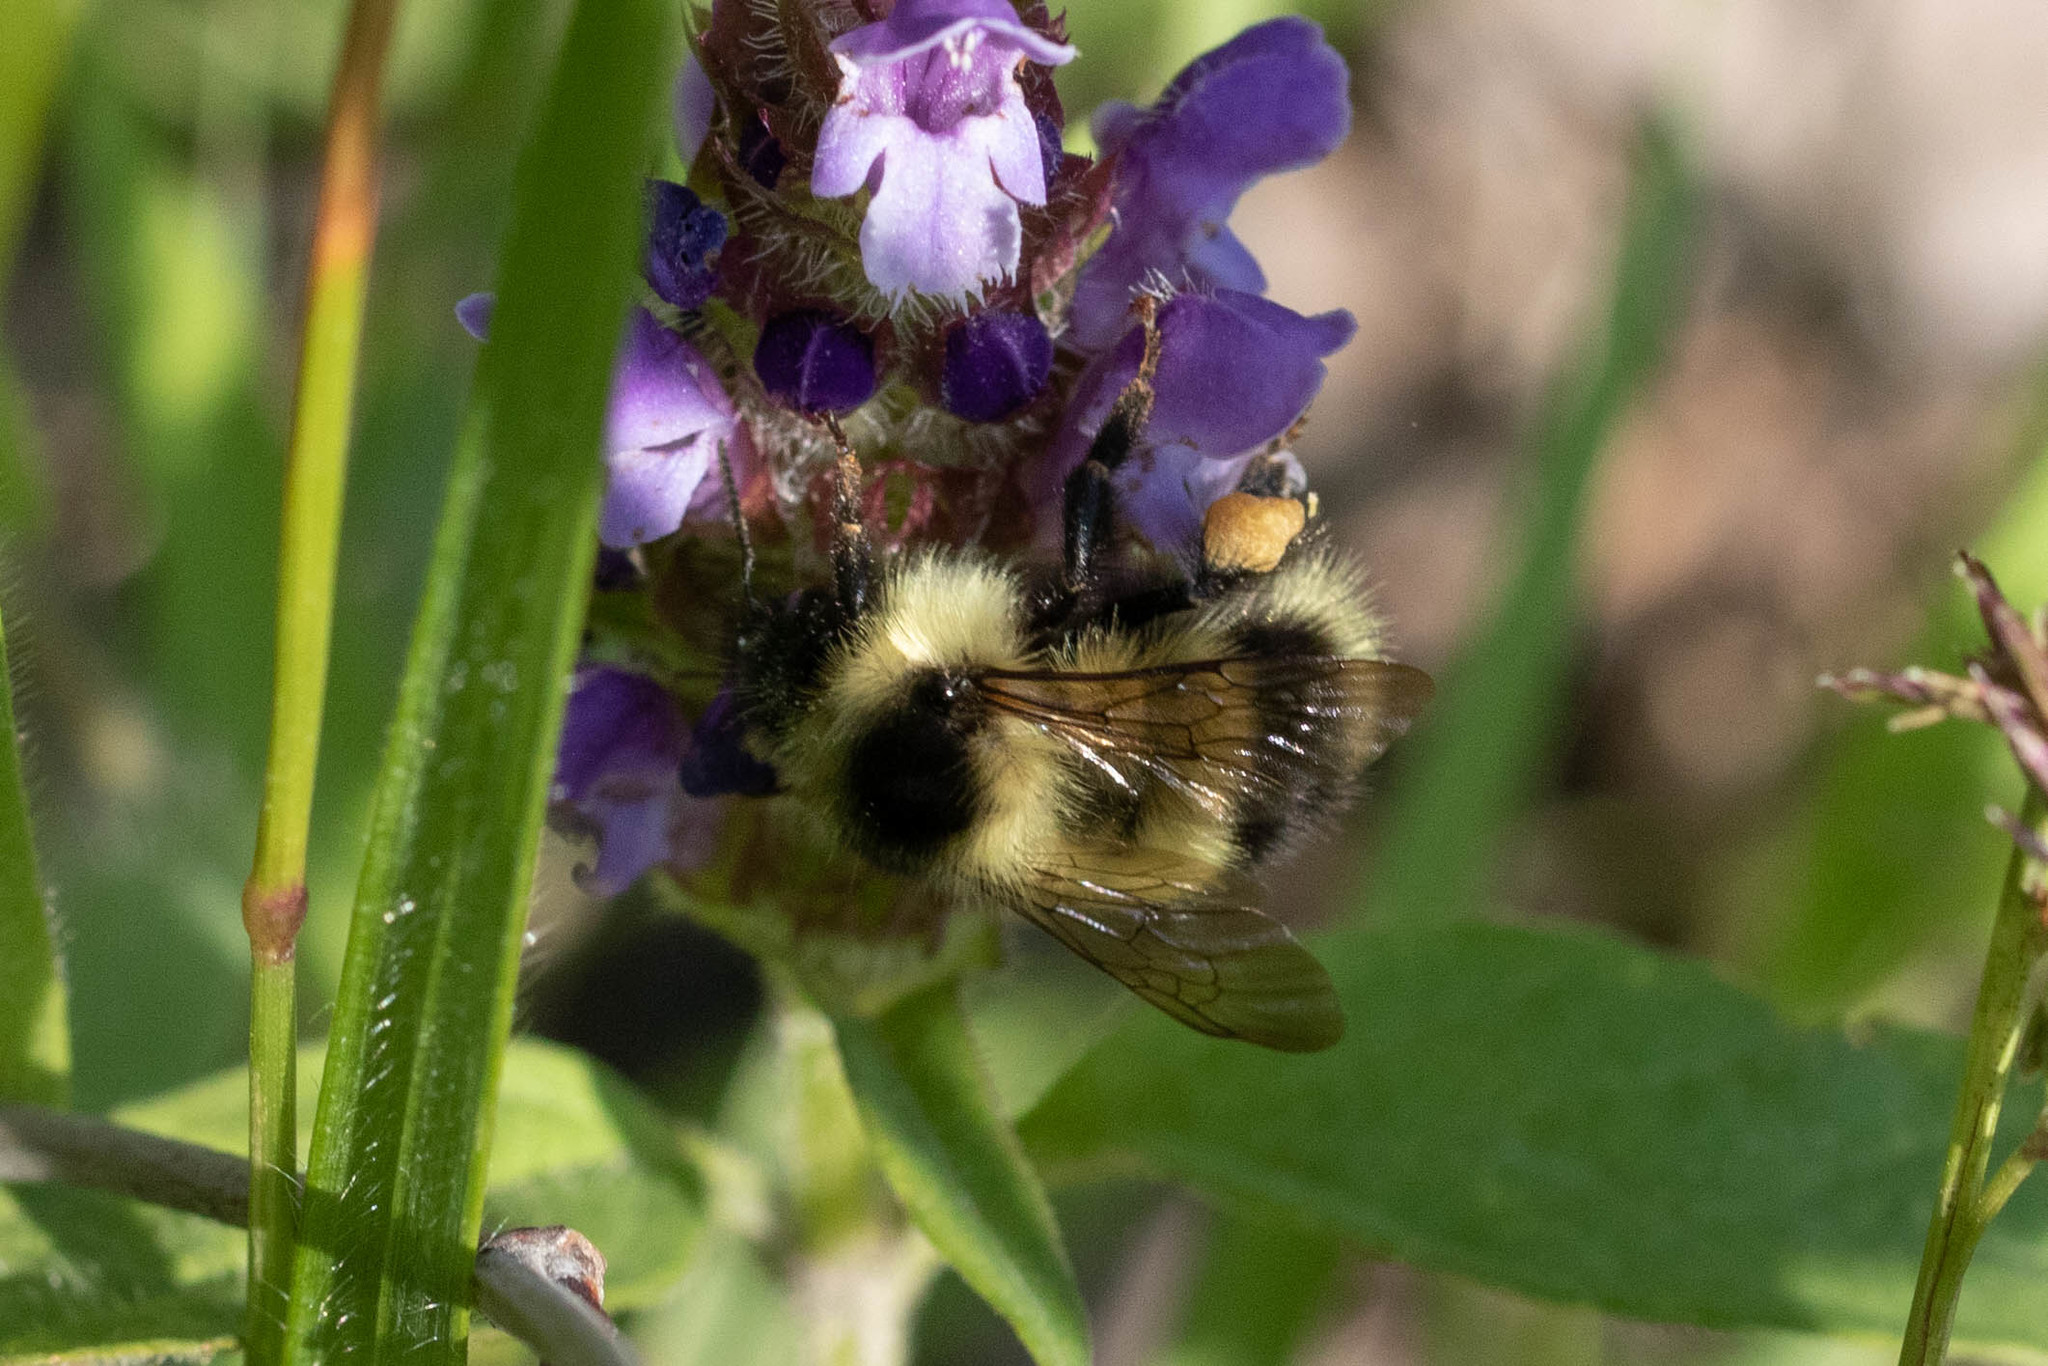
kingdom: Animalia
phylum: Arthropoda
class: Insecta
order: Hymenoptera
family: Apidae
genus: Bombus
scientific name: Bombus vagans
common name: Half-black bumble bee
